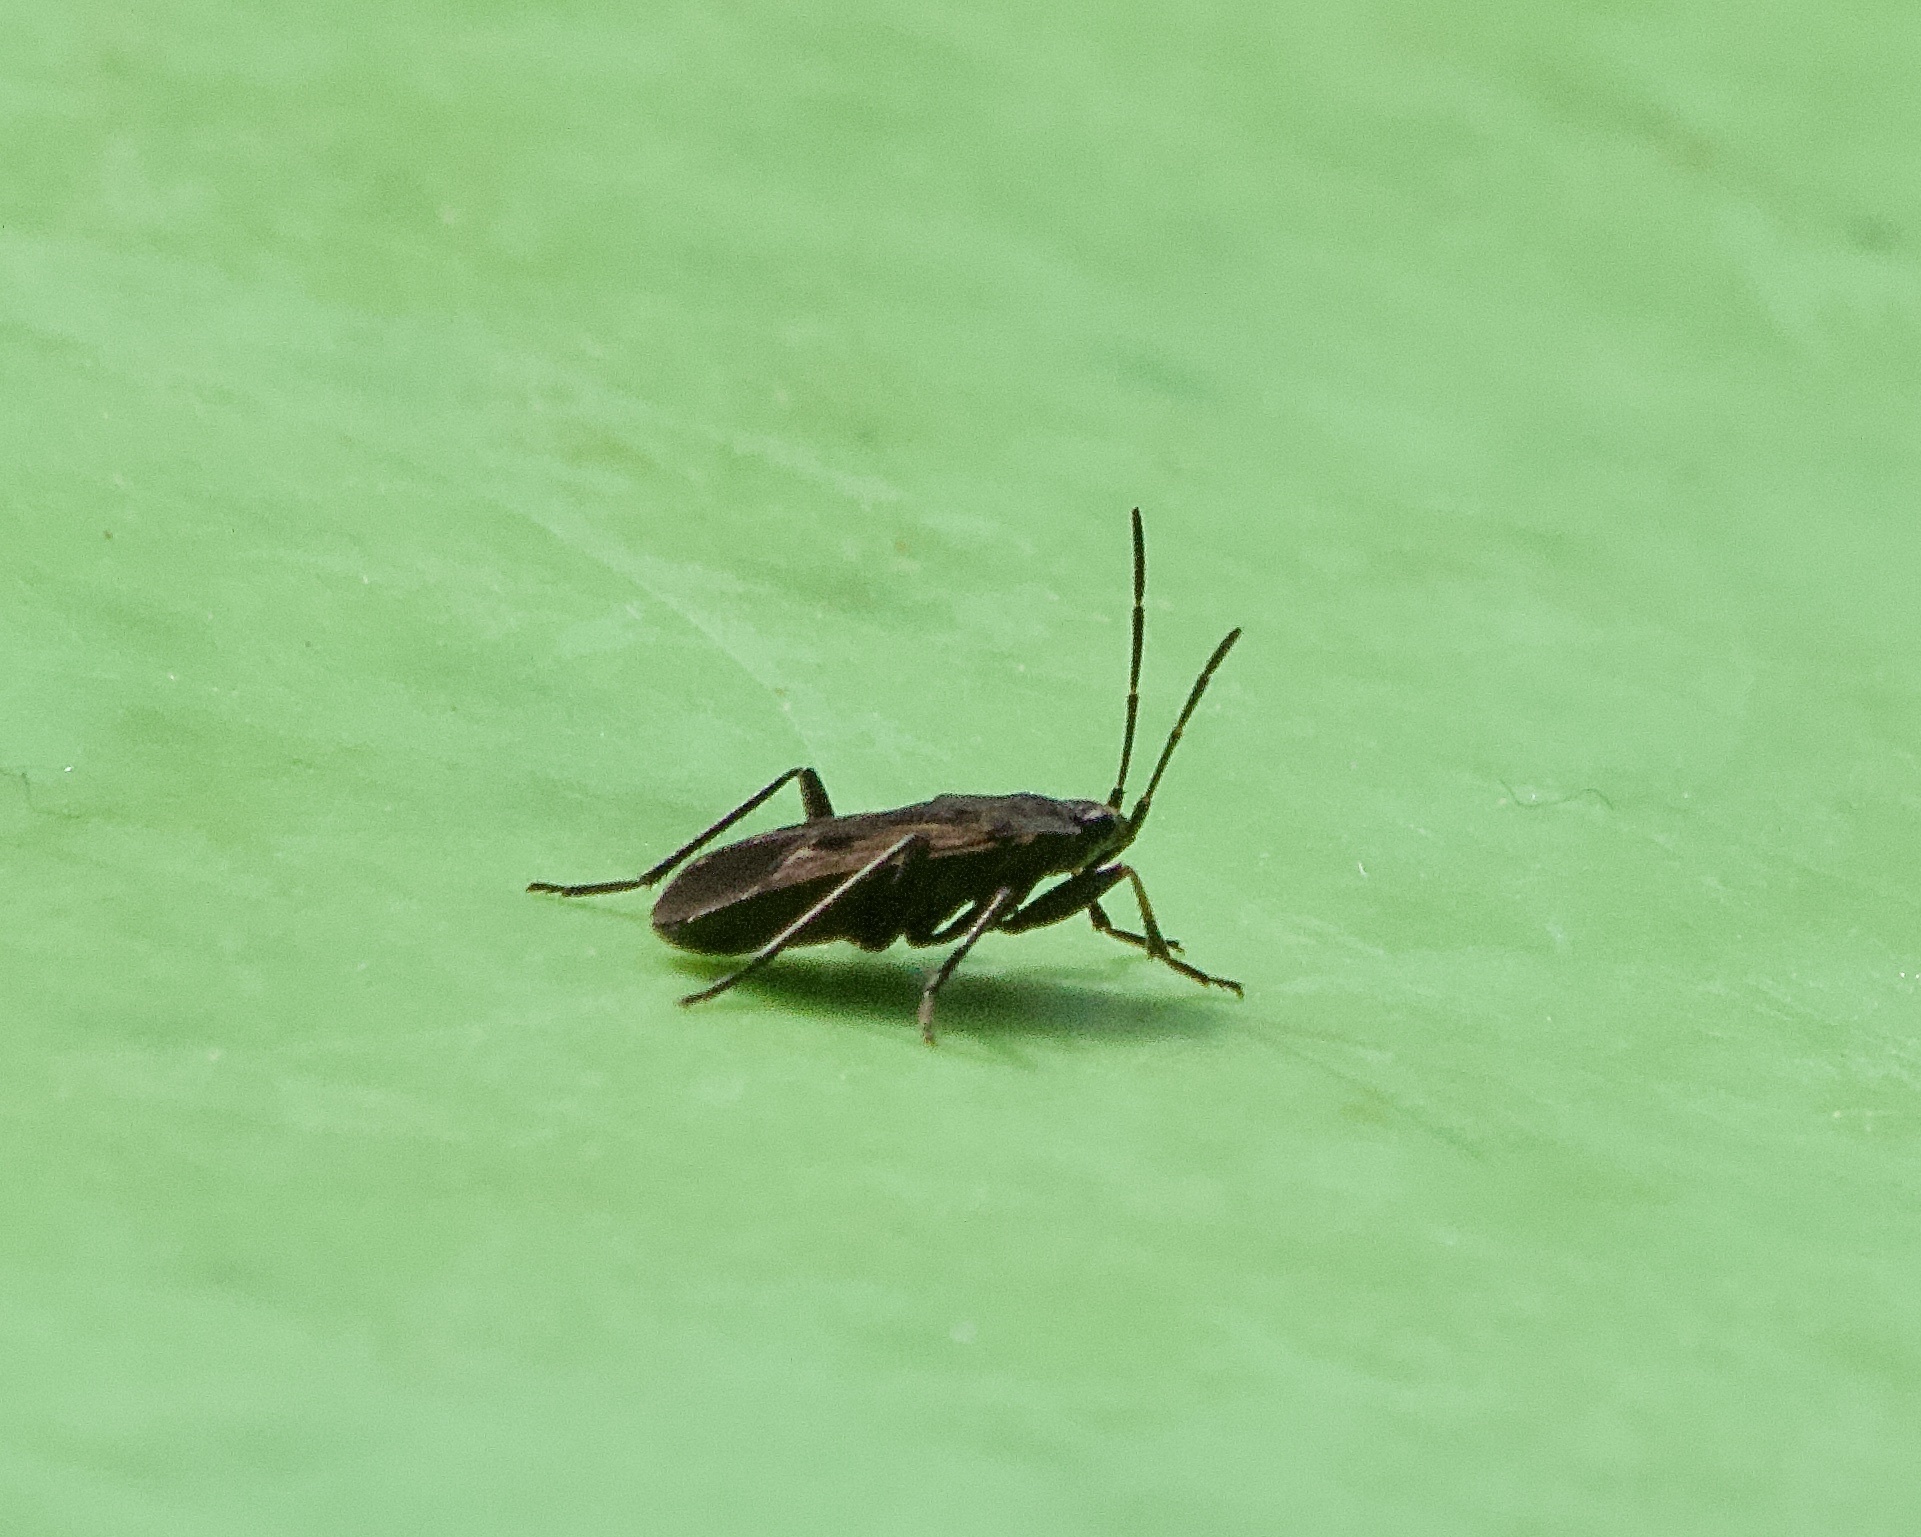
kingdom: Animalia
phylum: Arthropoda
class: Insecta
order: Hemiptera
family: Rhyparochromidae
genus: Rhyparochromus
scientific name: Rhyparochromus pini
